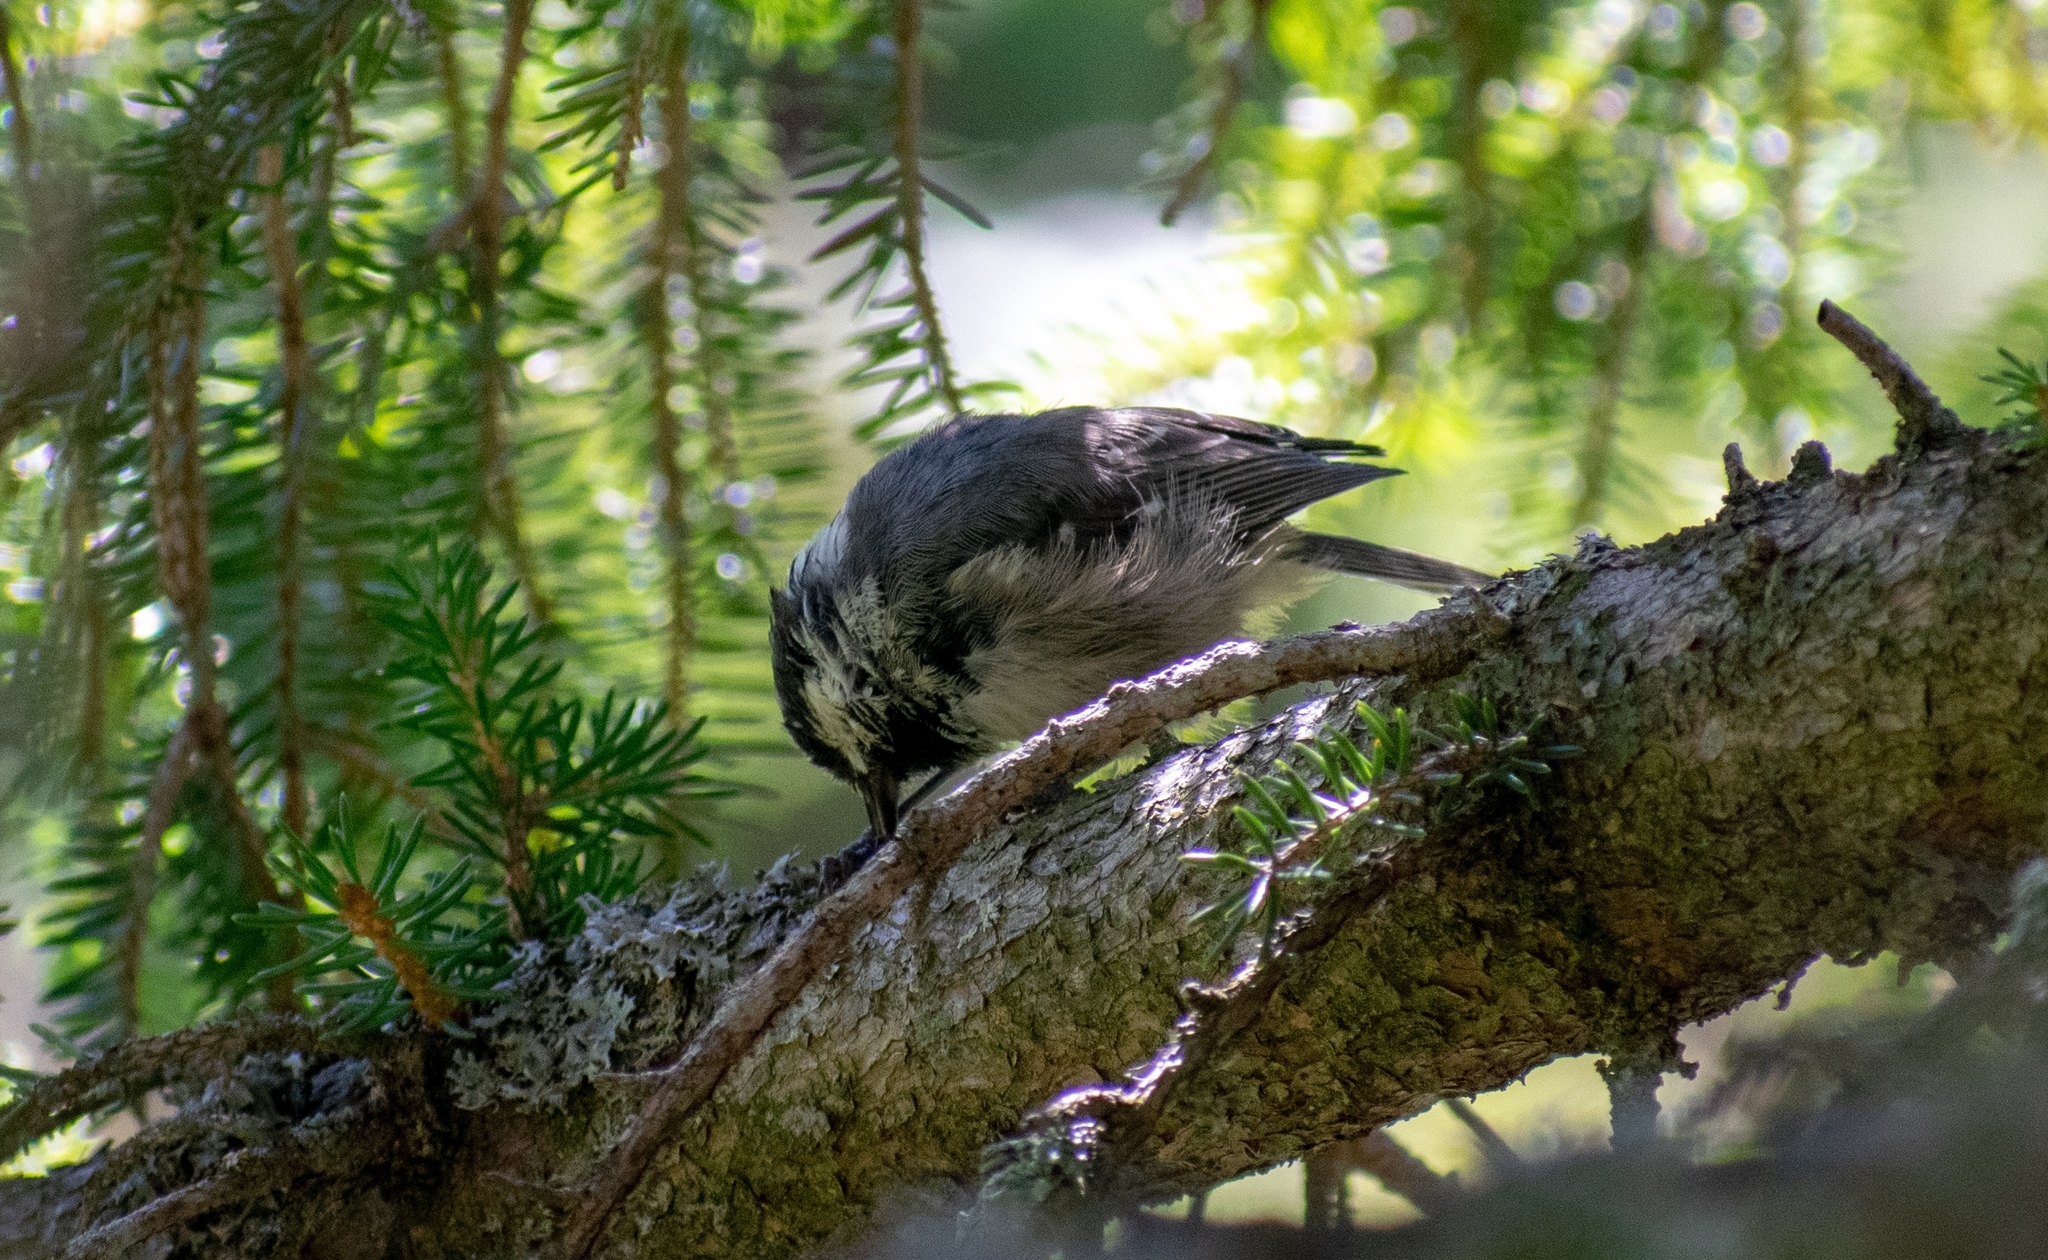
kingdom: Animalia
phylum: Chordata
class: Aves
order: Passeriformes
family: Paridae
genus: Periparus
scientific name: Periparus ater
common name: Coal tit
